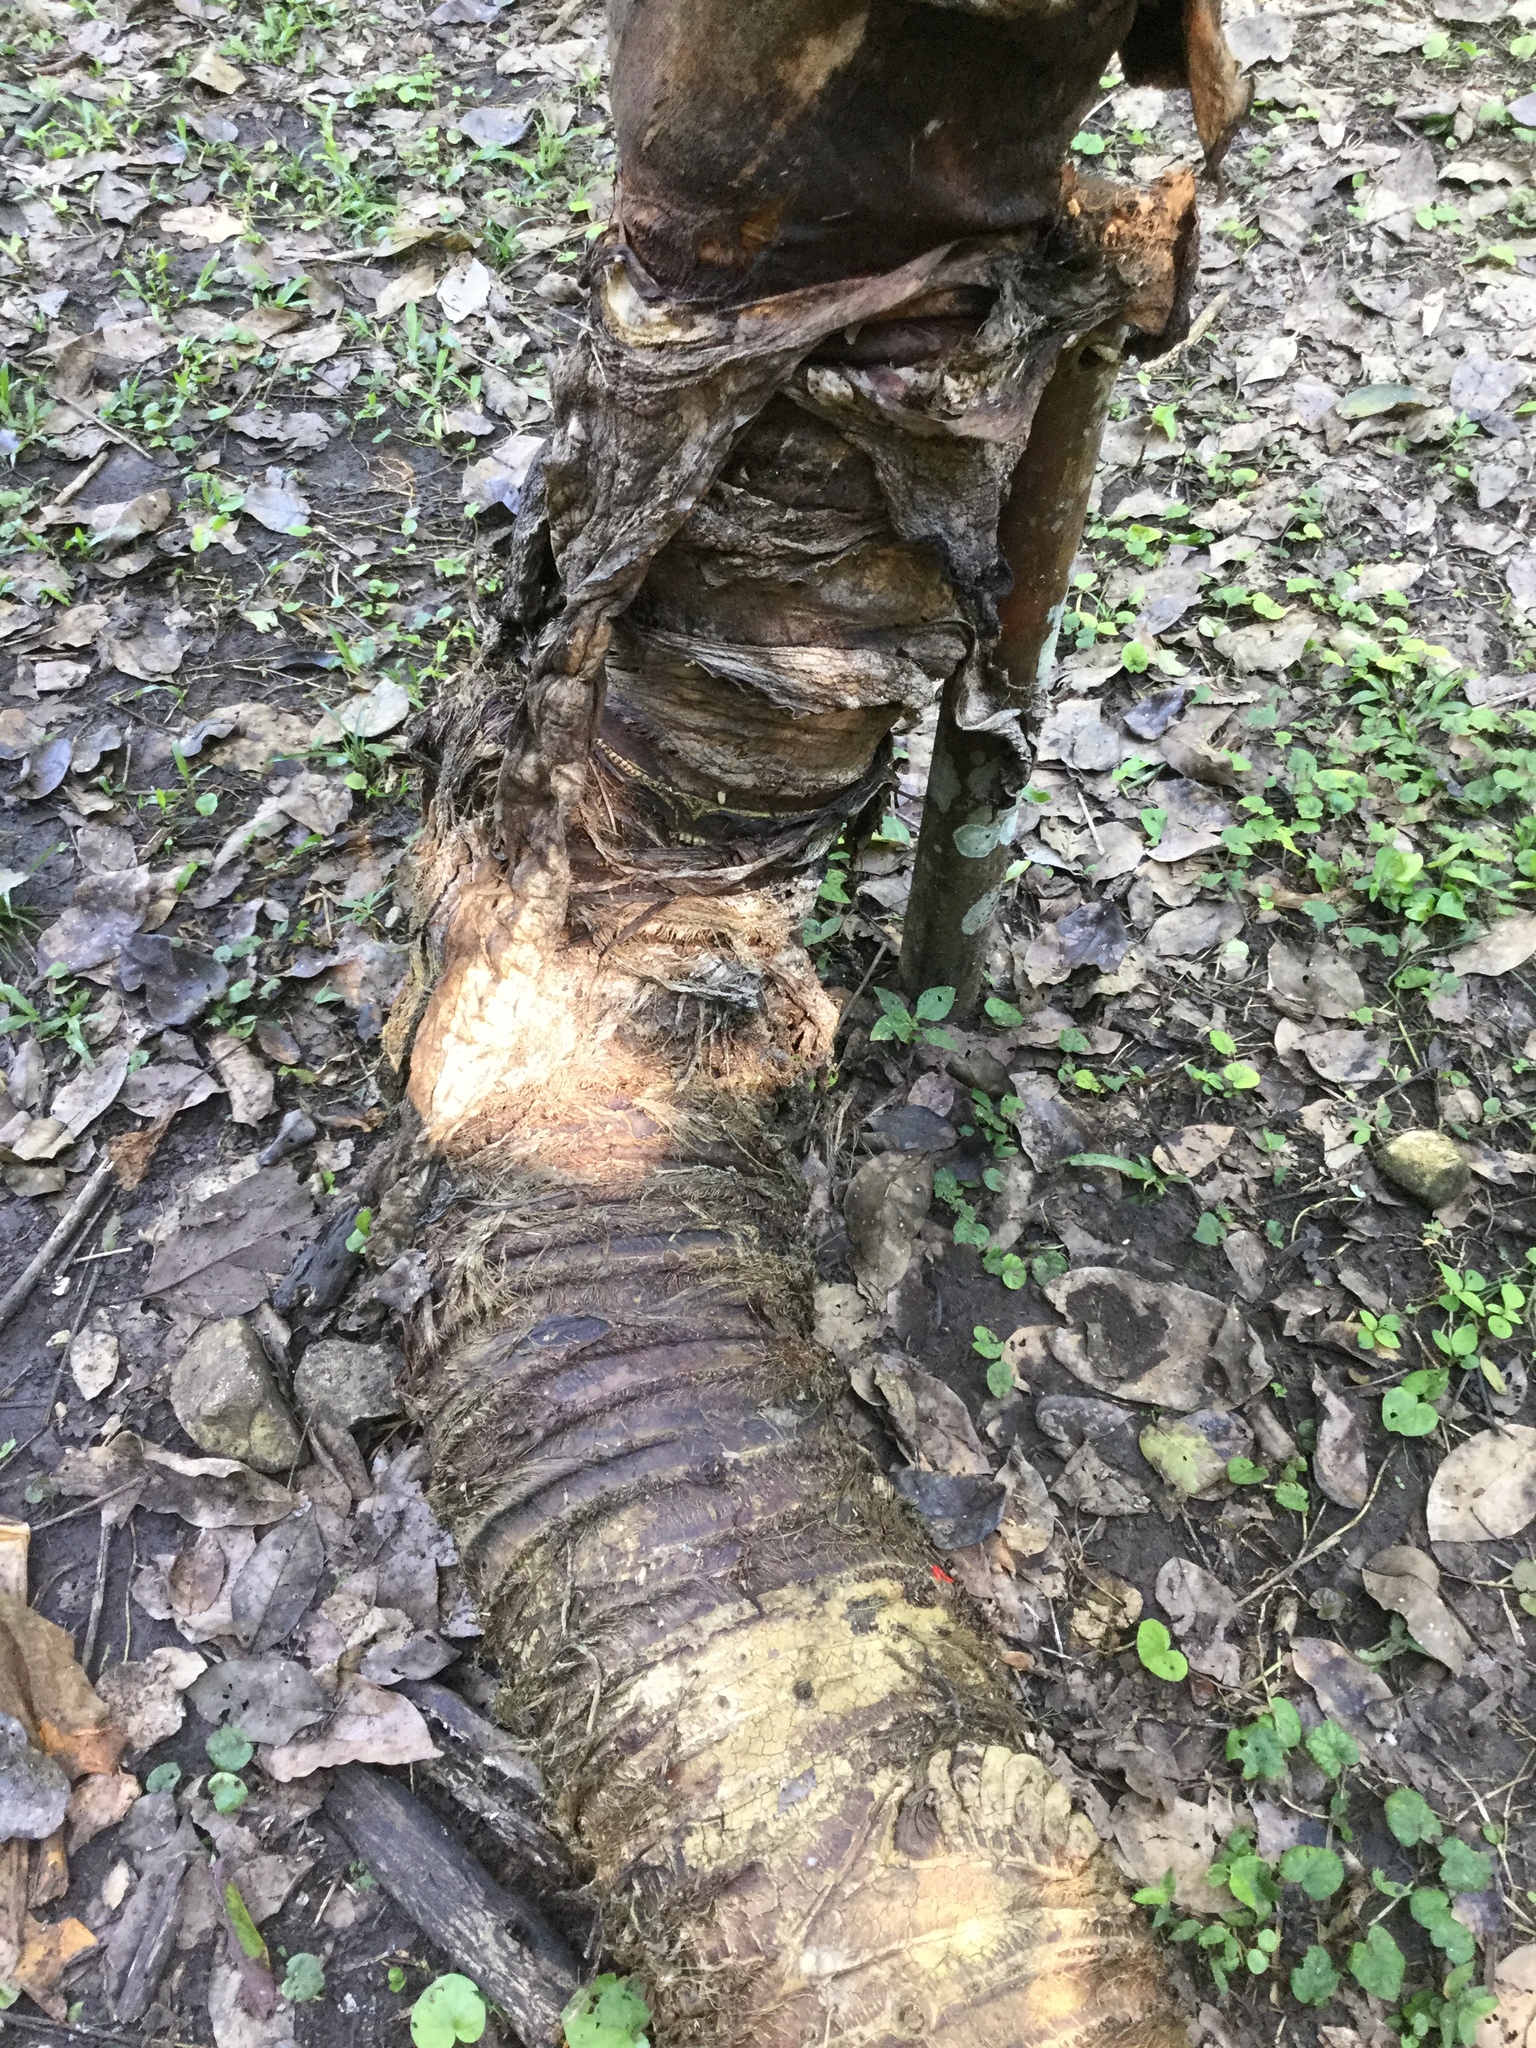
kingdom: Plantae
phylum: Tracheophyta
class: Liliopsida
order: Alismatales
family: Araceae
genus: Xanthosoma
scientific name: Xanthosoma robustum
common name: Capote
